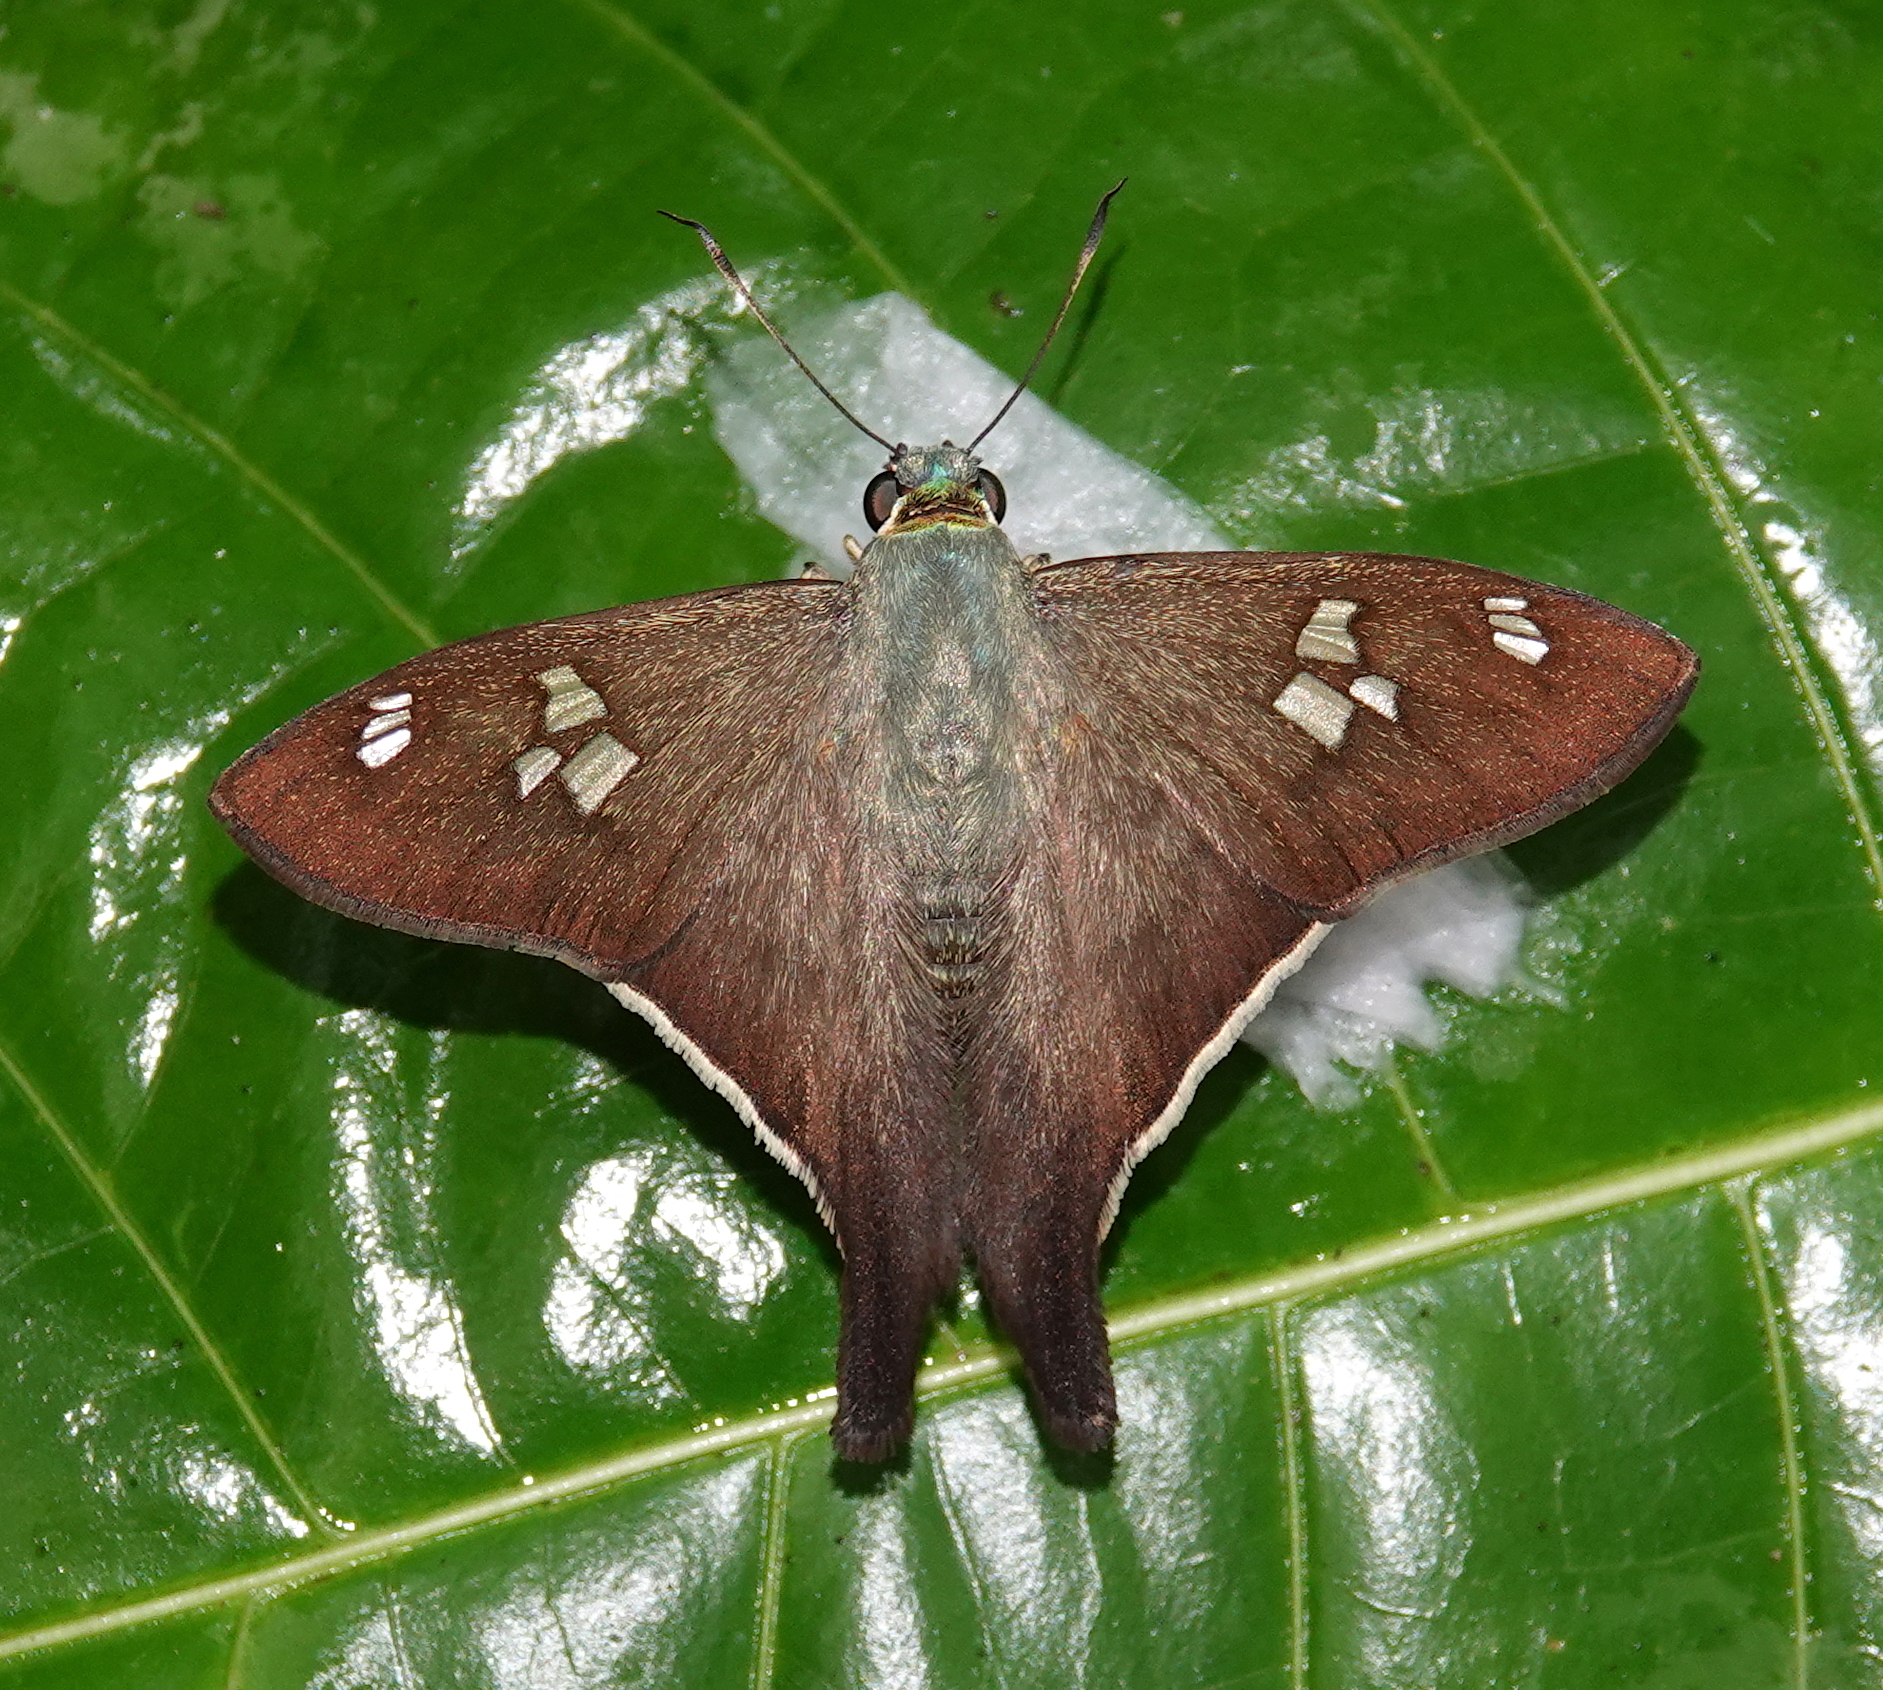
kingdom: Animalia
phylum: Arthropoda
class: Insecta
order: Lepidoptera
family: Hesperiidae
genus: Polythrix
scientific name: Polythrix ceculus
